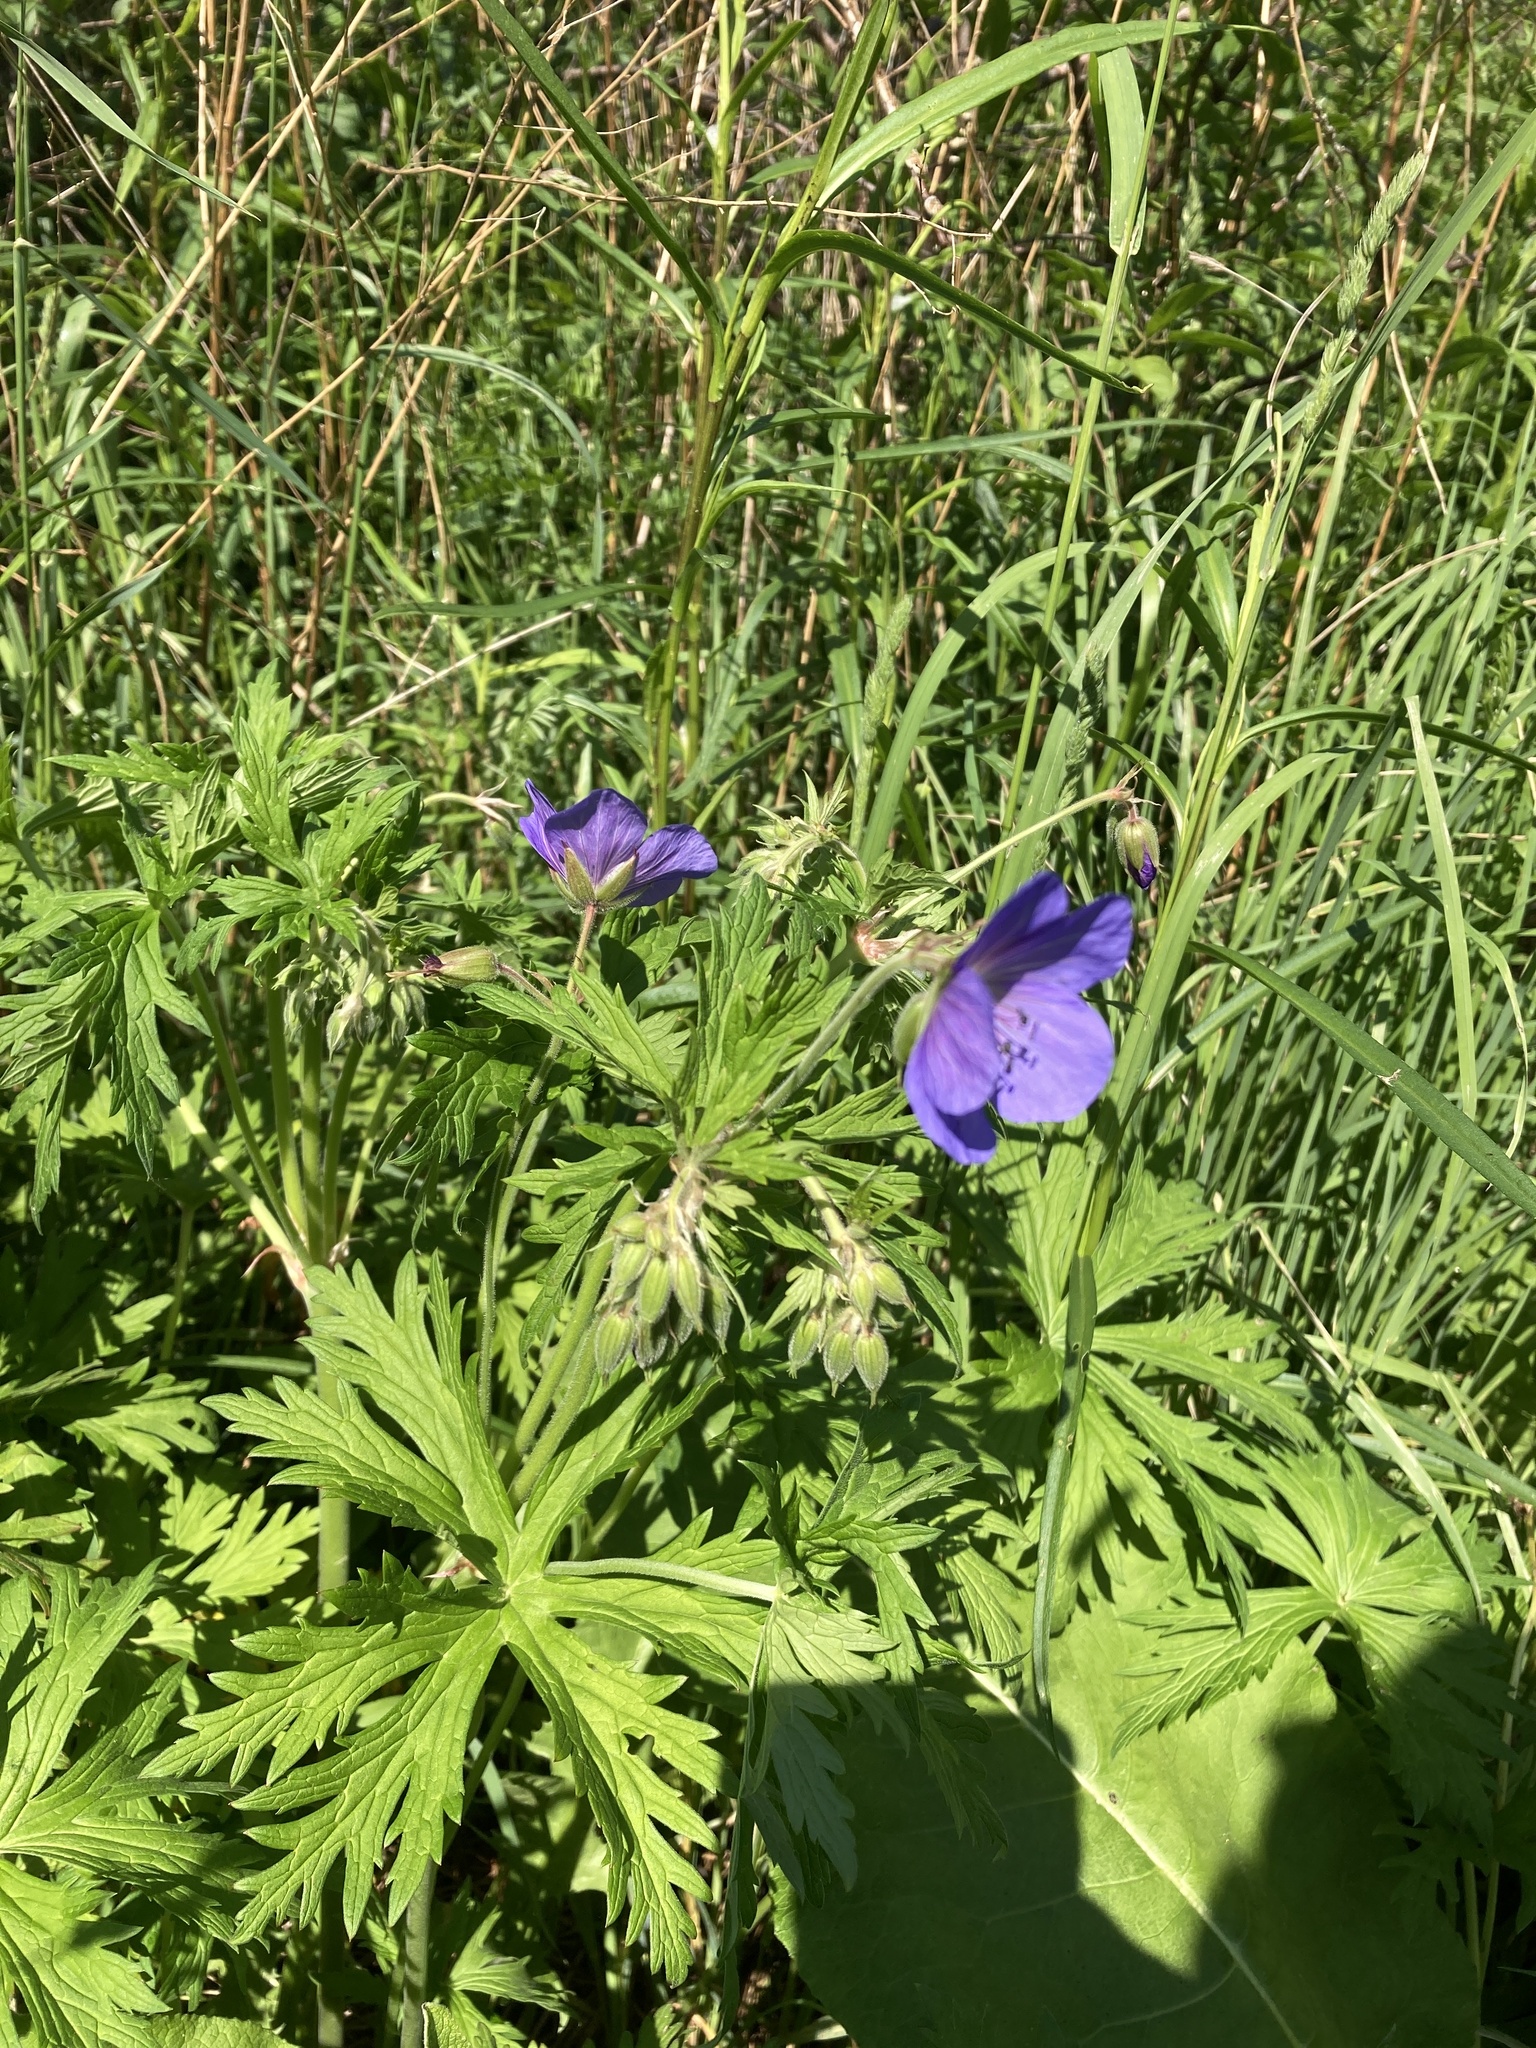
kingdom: Plantae
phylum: Tracheophyta
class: Magnoliopsida
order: Geraniales
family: Geraniaceae
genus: Geranium
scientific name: Geranium pratense
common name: Meadow crane's-bill
